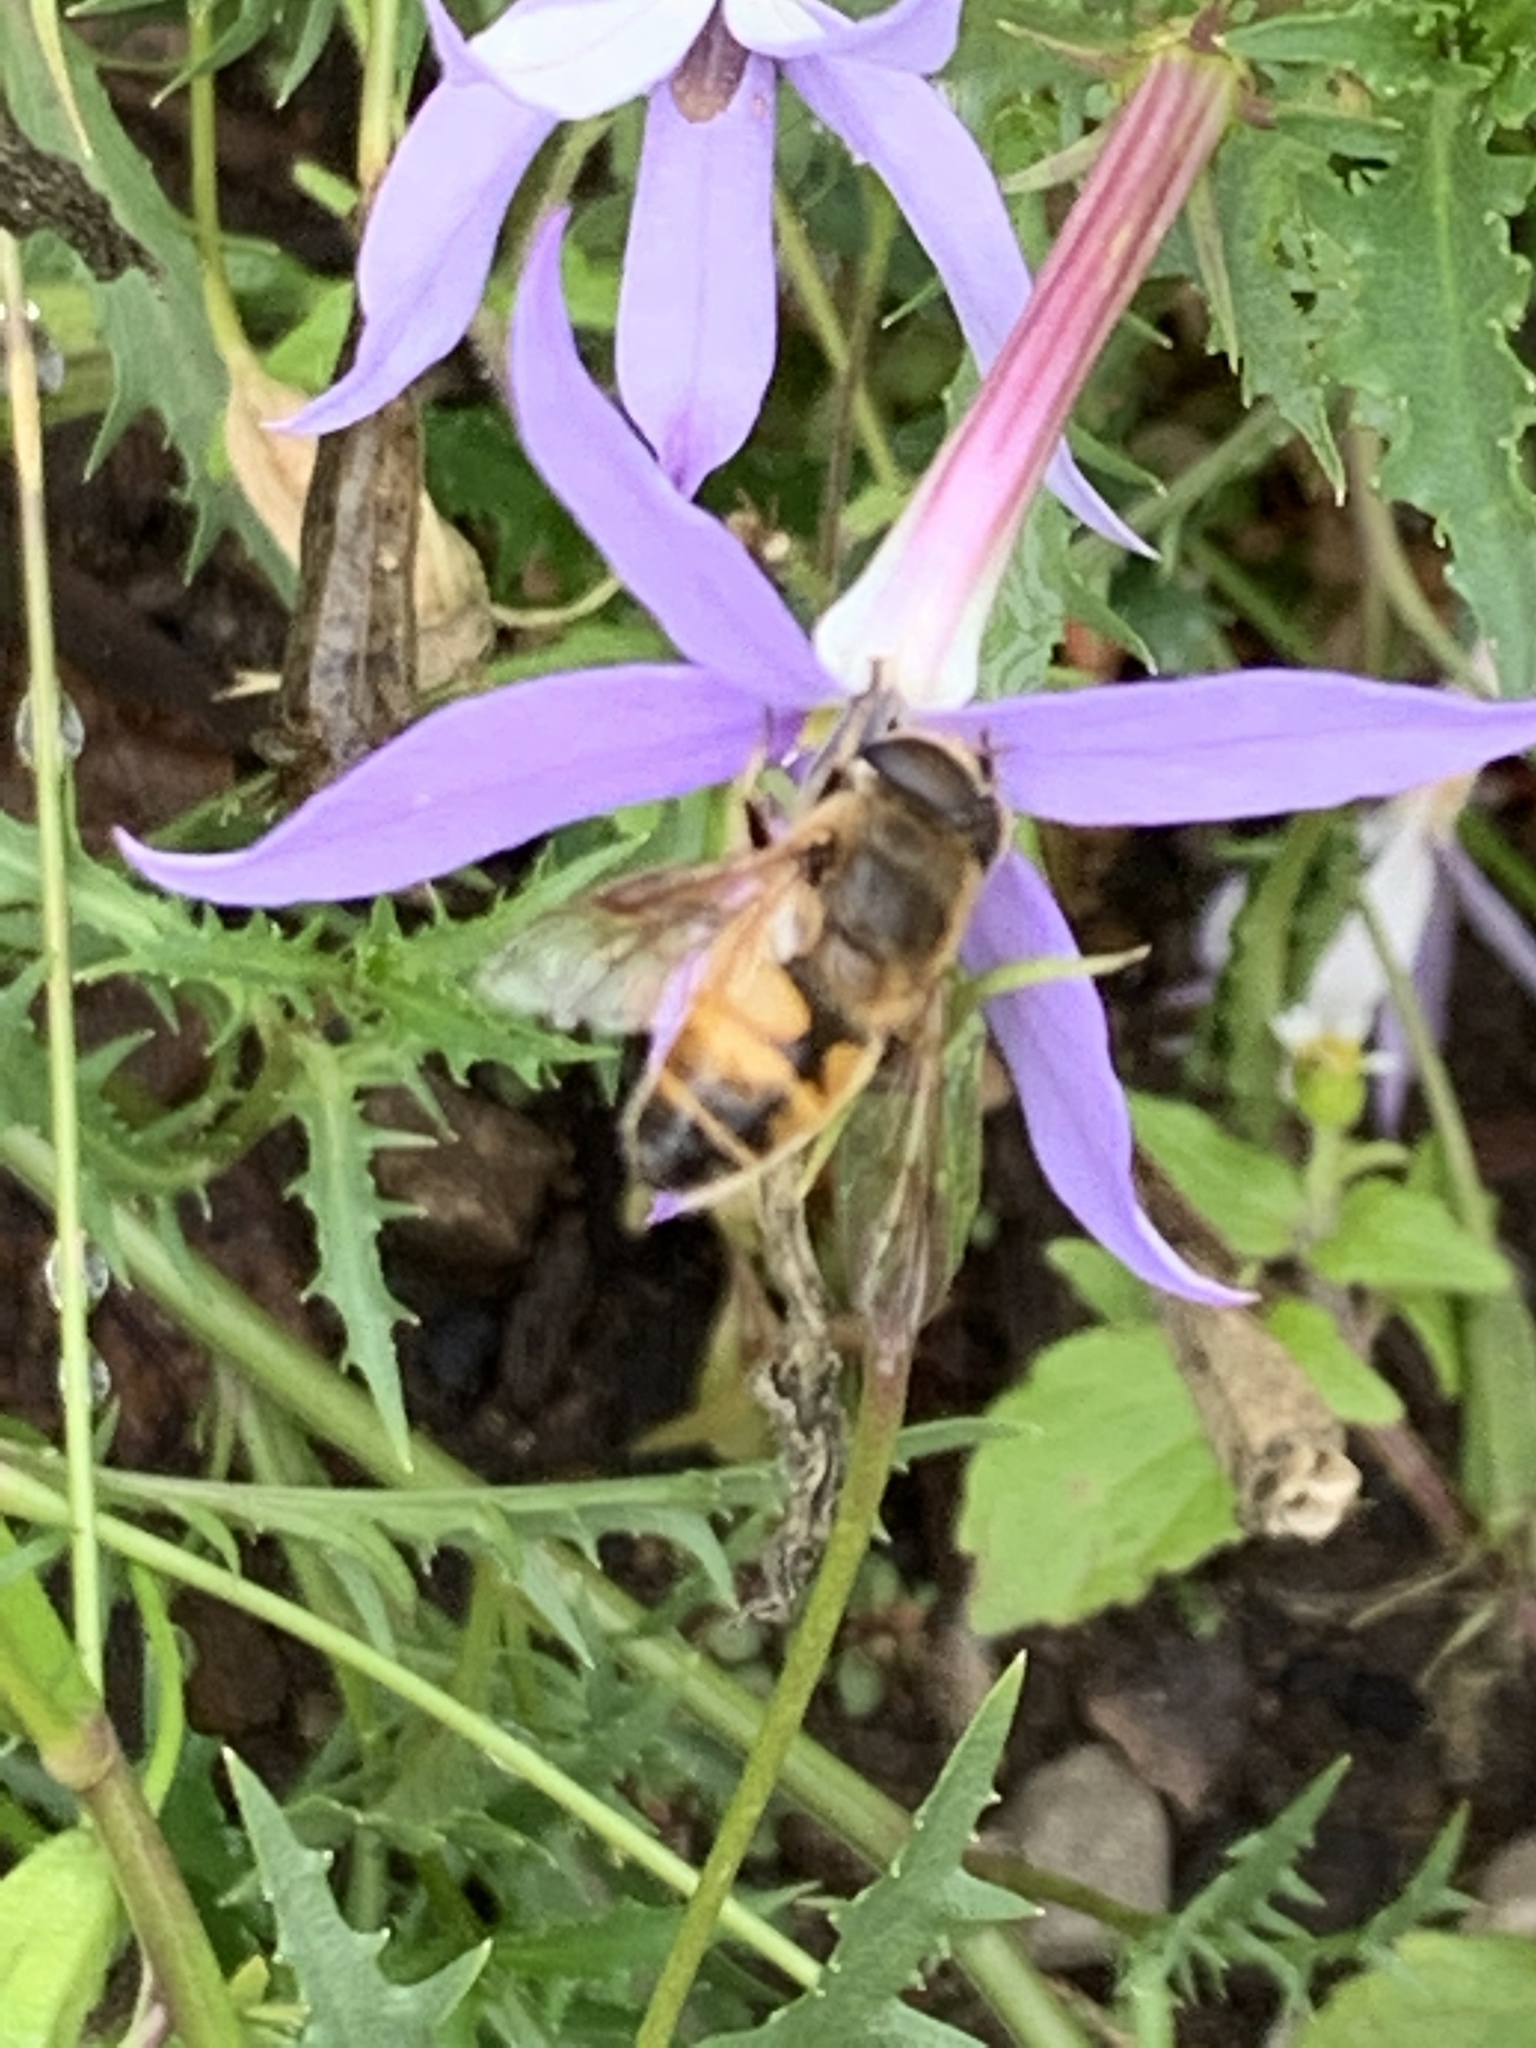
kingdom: Animalia
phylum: Arthropoda
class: Insecta
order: Diptera
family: Syrphidae
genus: Eristalis
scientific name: Eristalis tenax
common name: Drone fly
